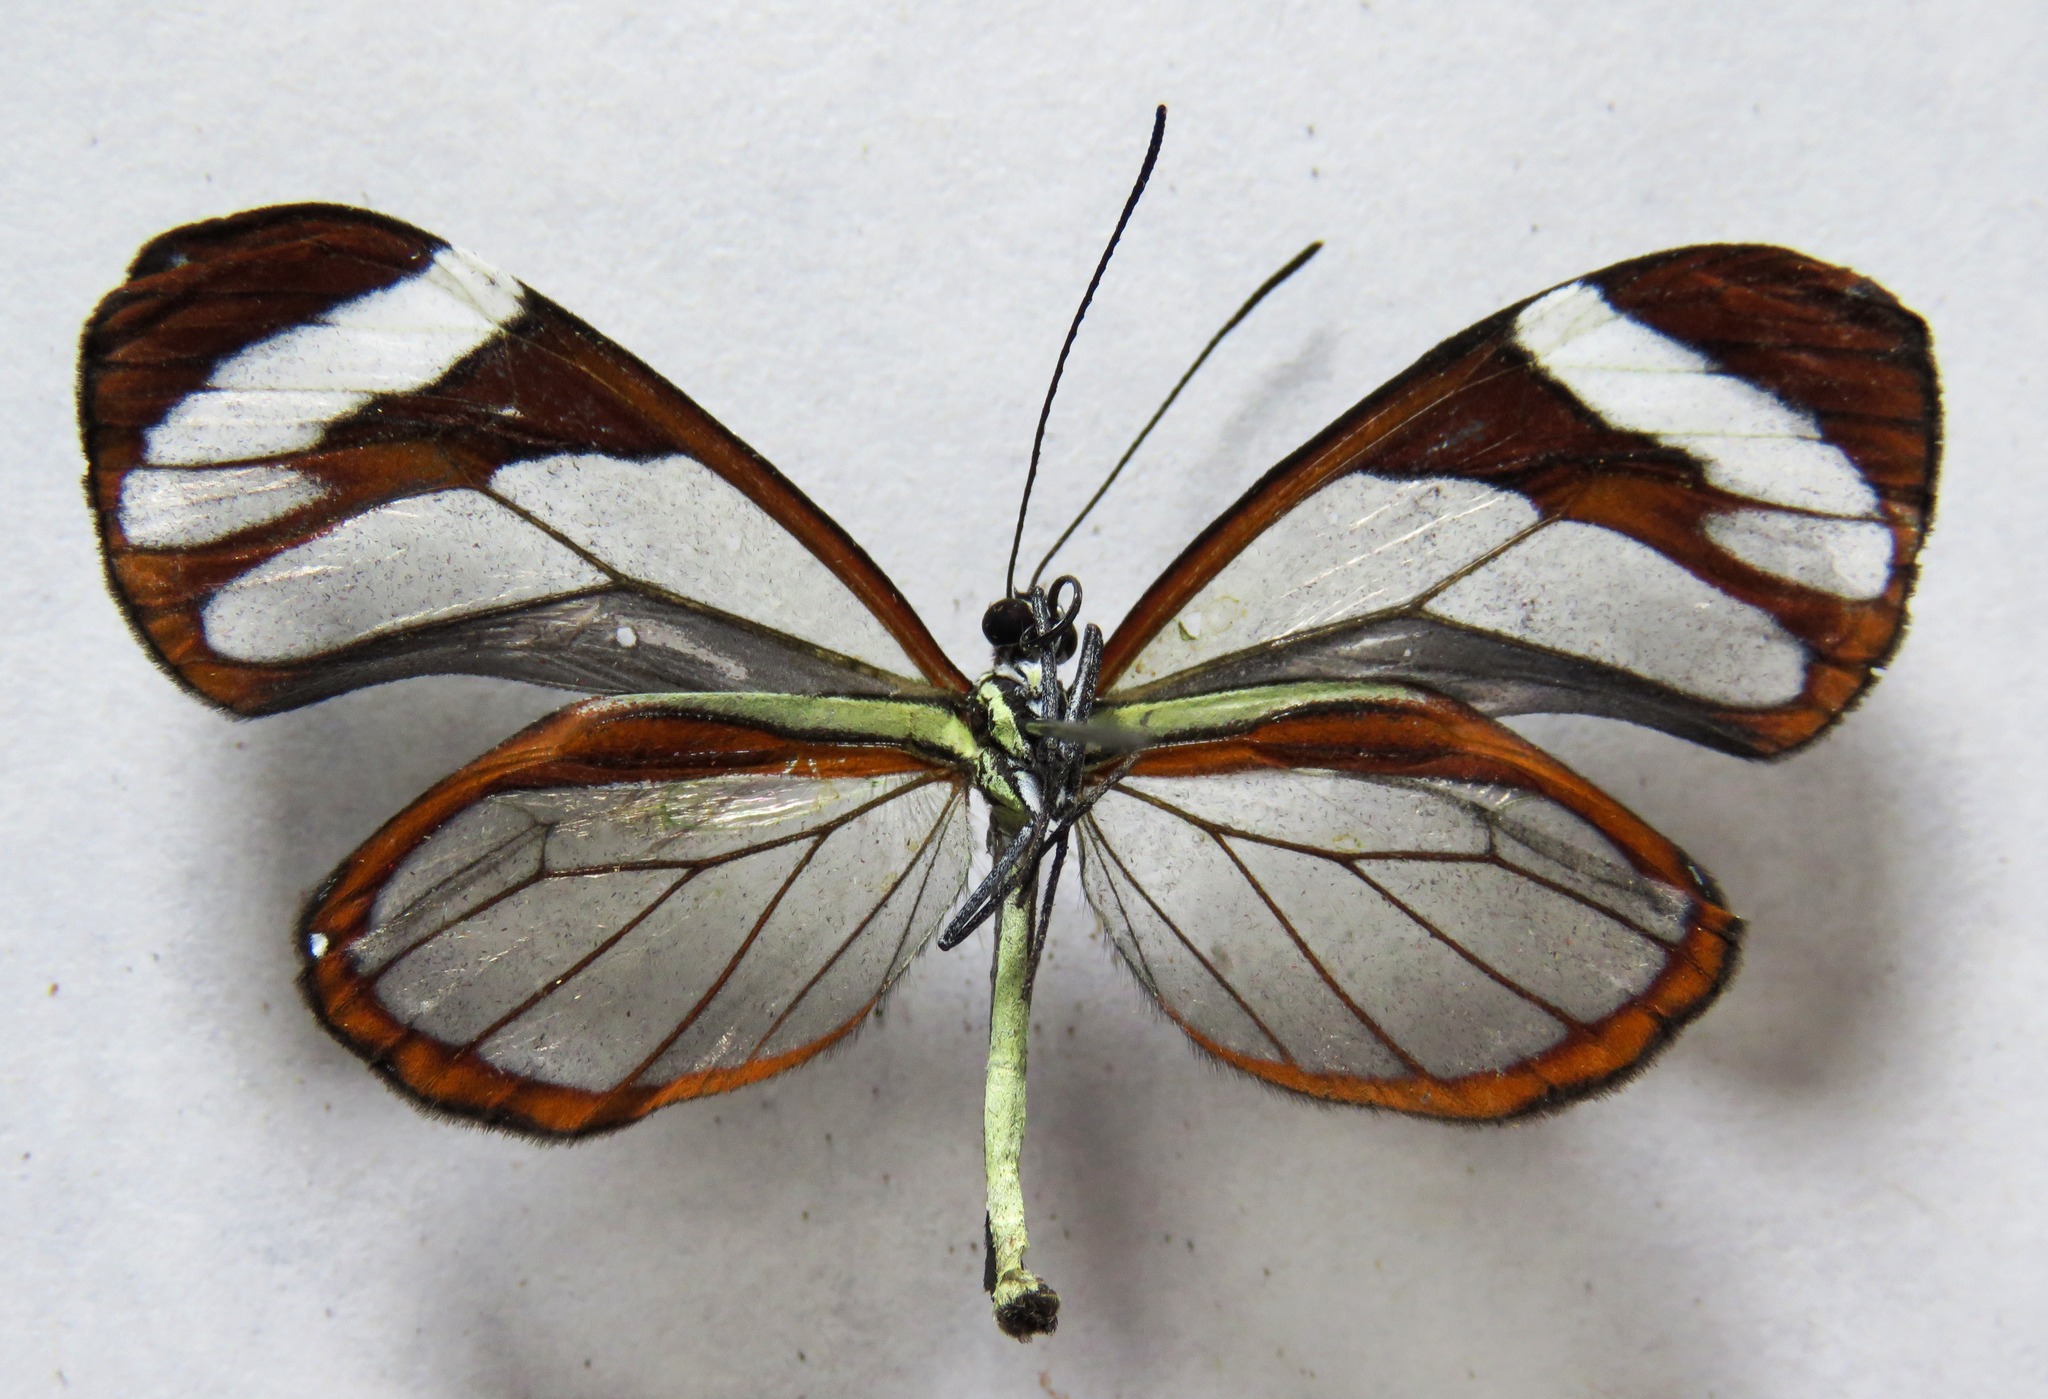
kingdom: Animalia
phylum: Arthropoda
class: Insecta
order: Lepidoptera
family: Nymphalidae
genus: Ithomia
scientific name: Ithomia patilla
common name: Patilla clearwing
